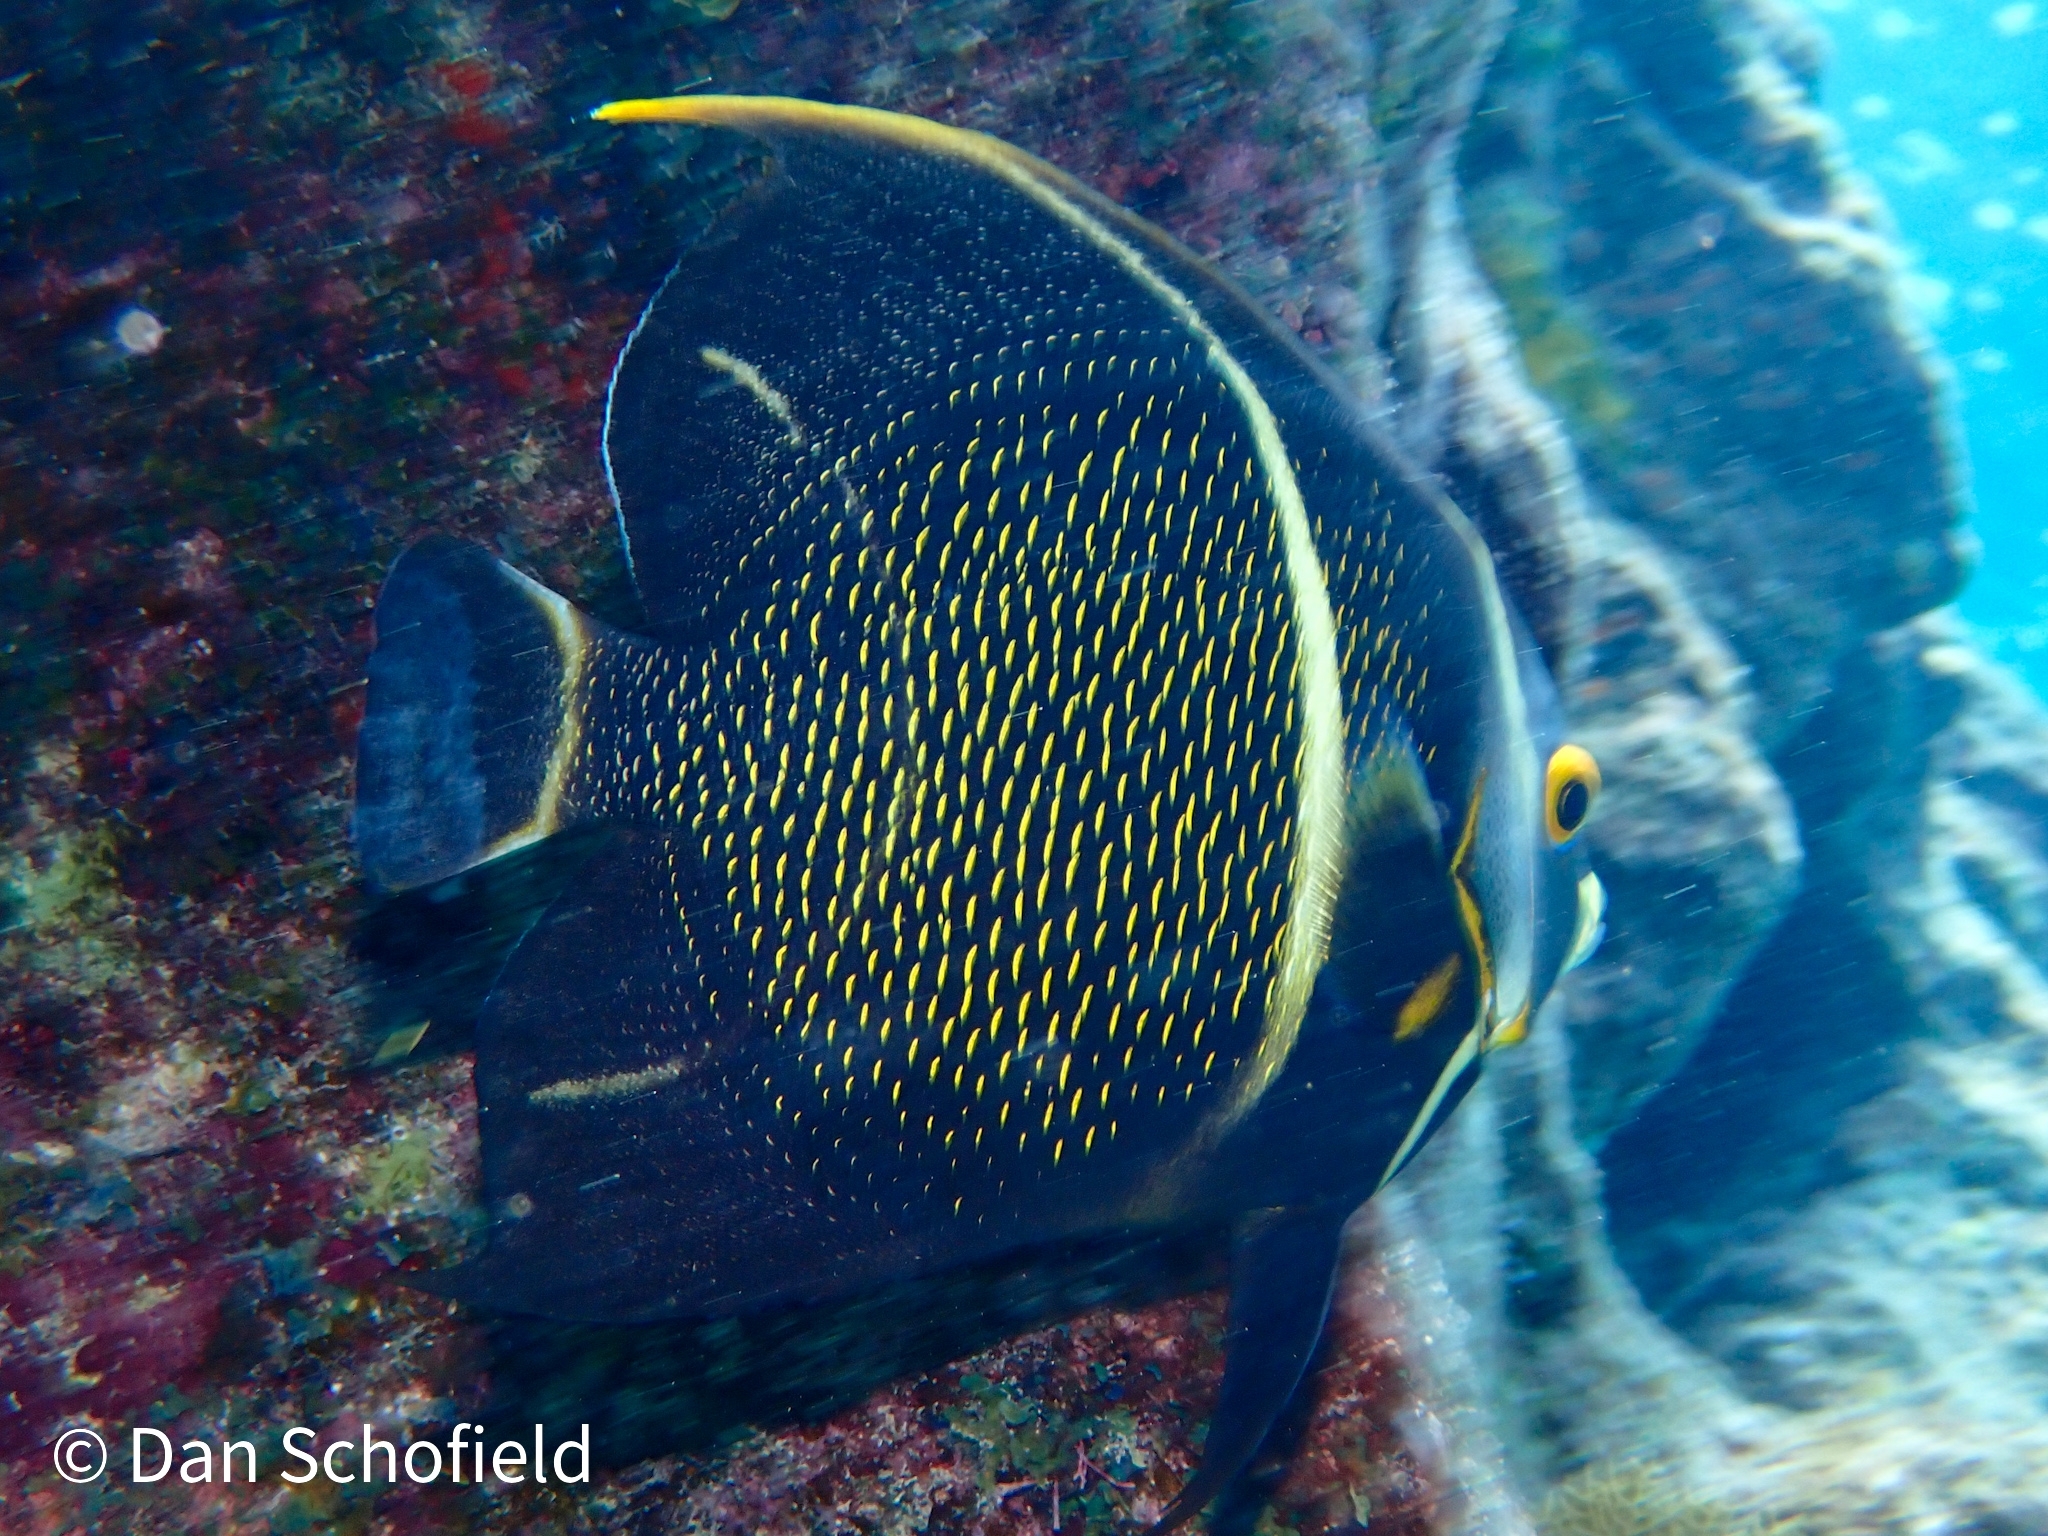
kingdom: Animalia
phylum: Chordata
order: Perciformes
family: Pomacanthidae
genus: Pomacanthus
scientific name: Pomacanthus paru
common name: French angelfish
